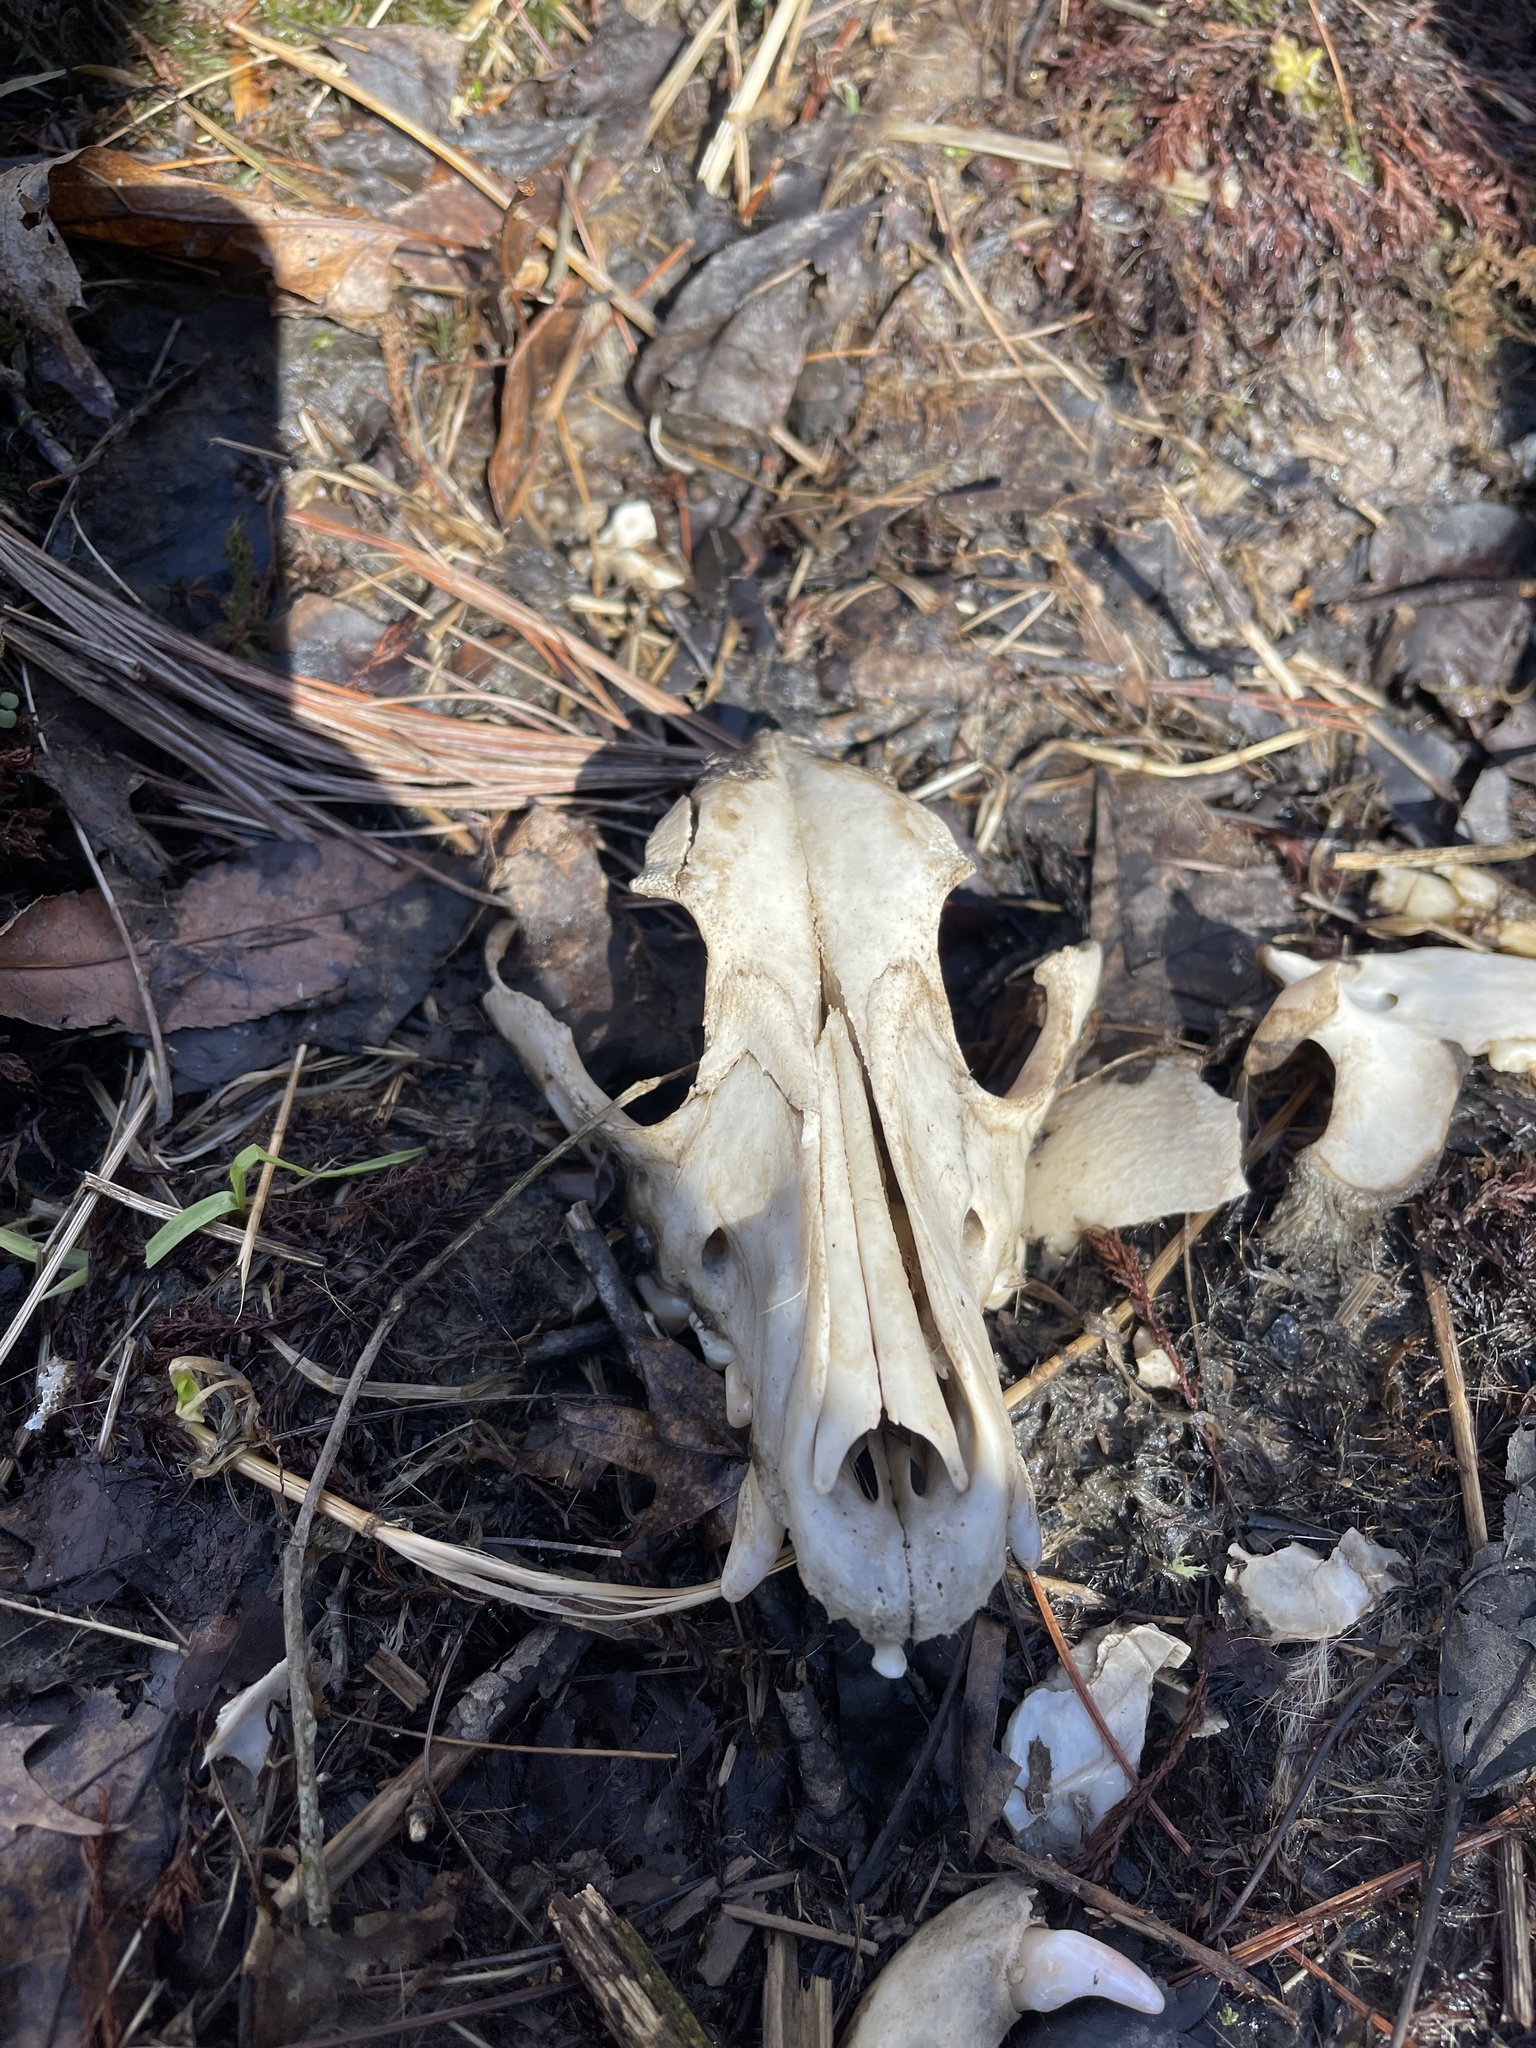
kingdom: Animalia
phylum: Chordata
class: Mammalia
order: Carnivora
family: Canidae
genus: Canis
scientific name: Canis latrans
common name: Coyote
